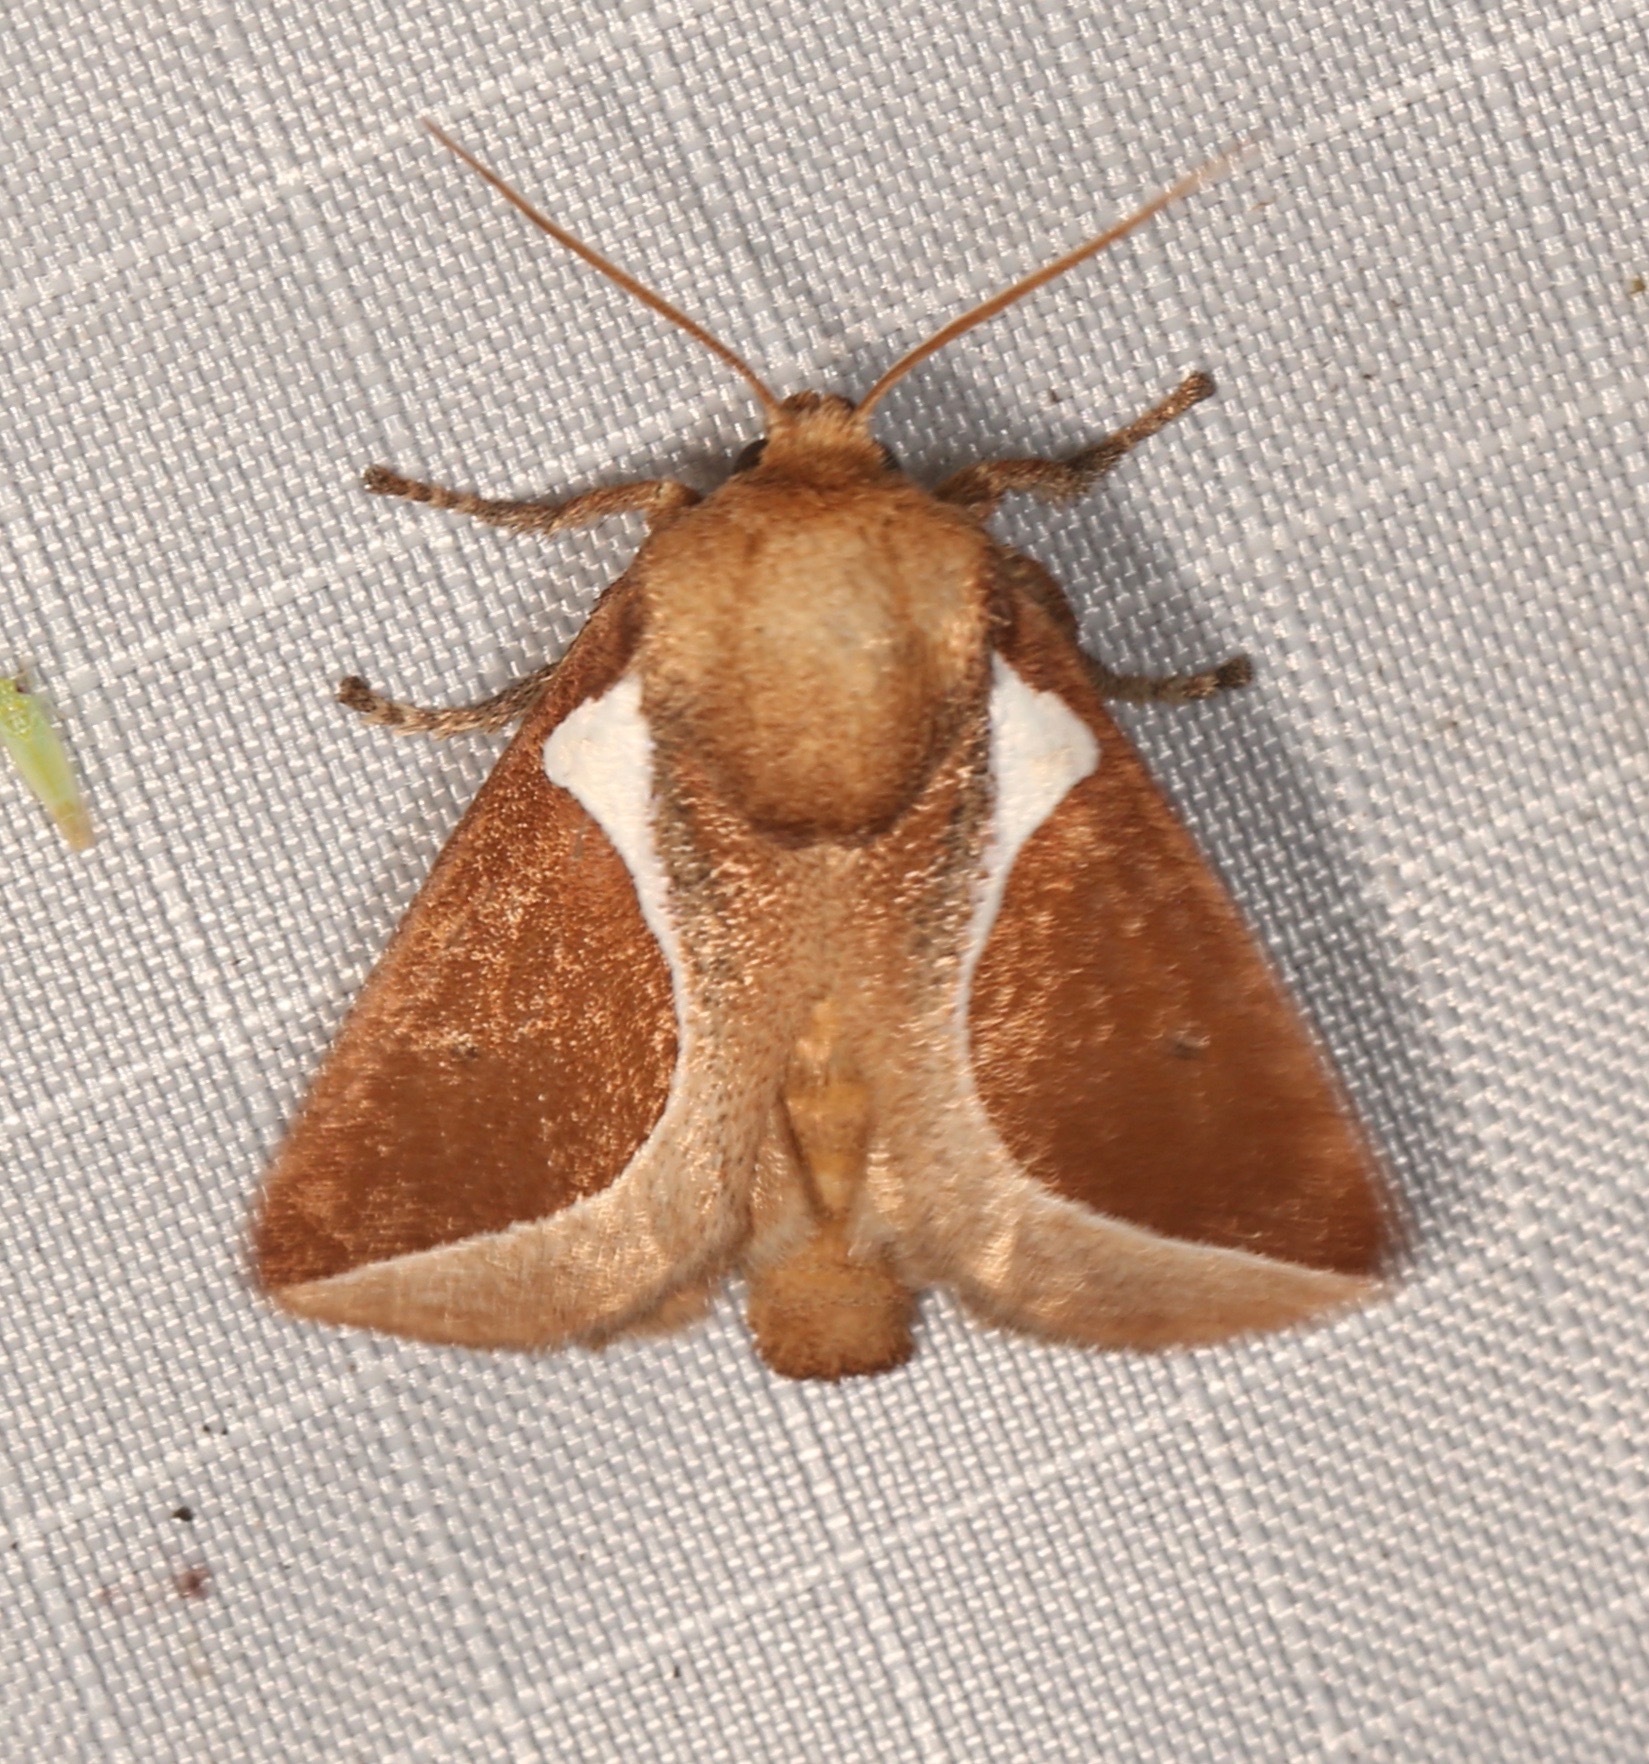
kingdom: Animalia
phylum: Arthropoda
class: Insecta
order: Lepidoptera
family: Limacodidae
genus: Prolimacodes
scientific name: Prolimacodes badia
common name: Skiff moth
